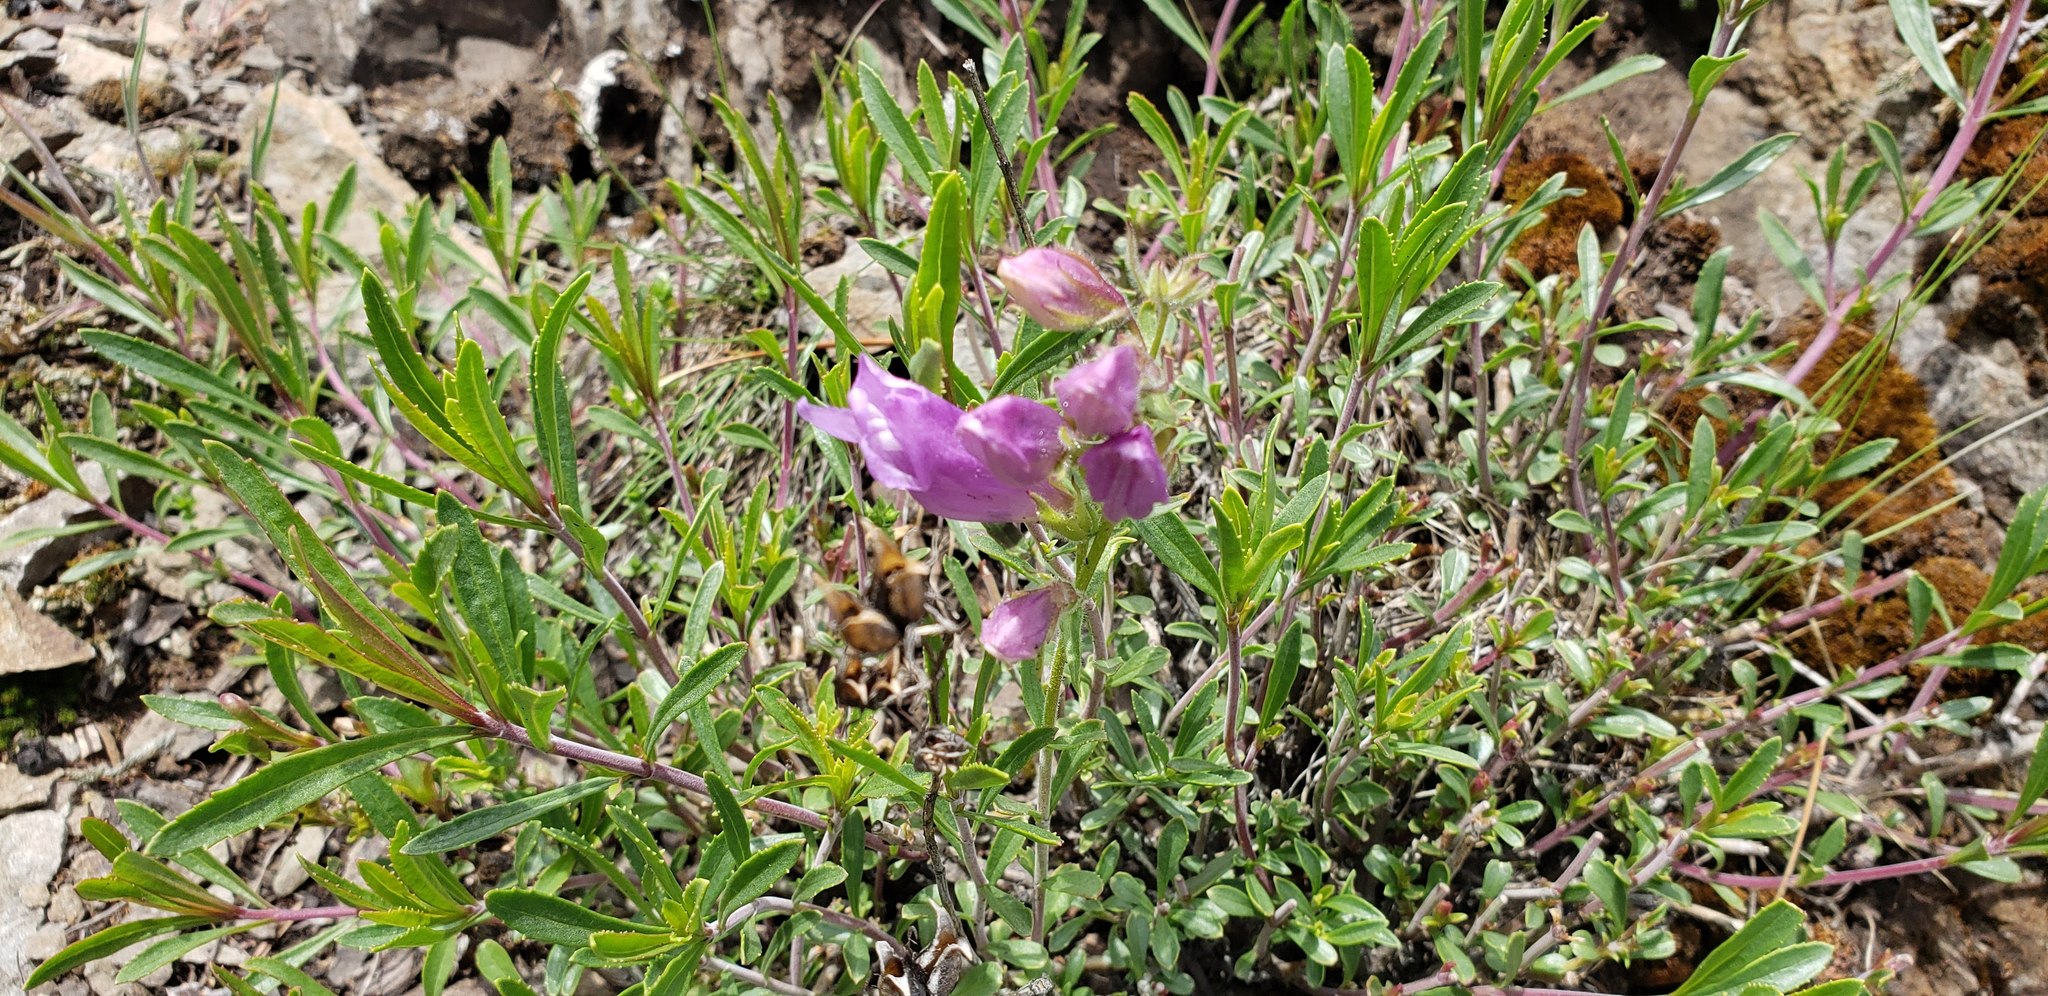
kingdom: Plantae
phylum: Tracheophyta
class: Magnoliopsida
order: Lamiales
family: Plantaginaceae
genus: Penstemon
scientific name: Penstemon fruticosus
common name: Bush penstemon
